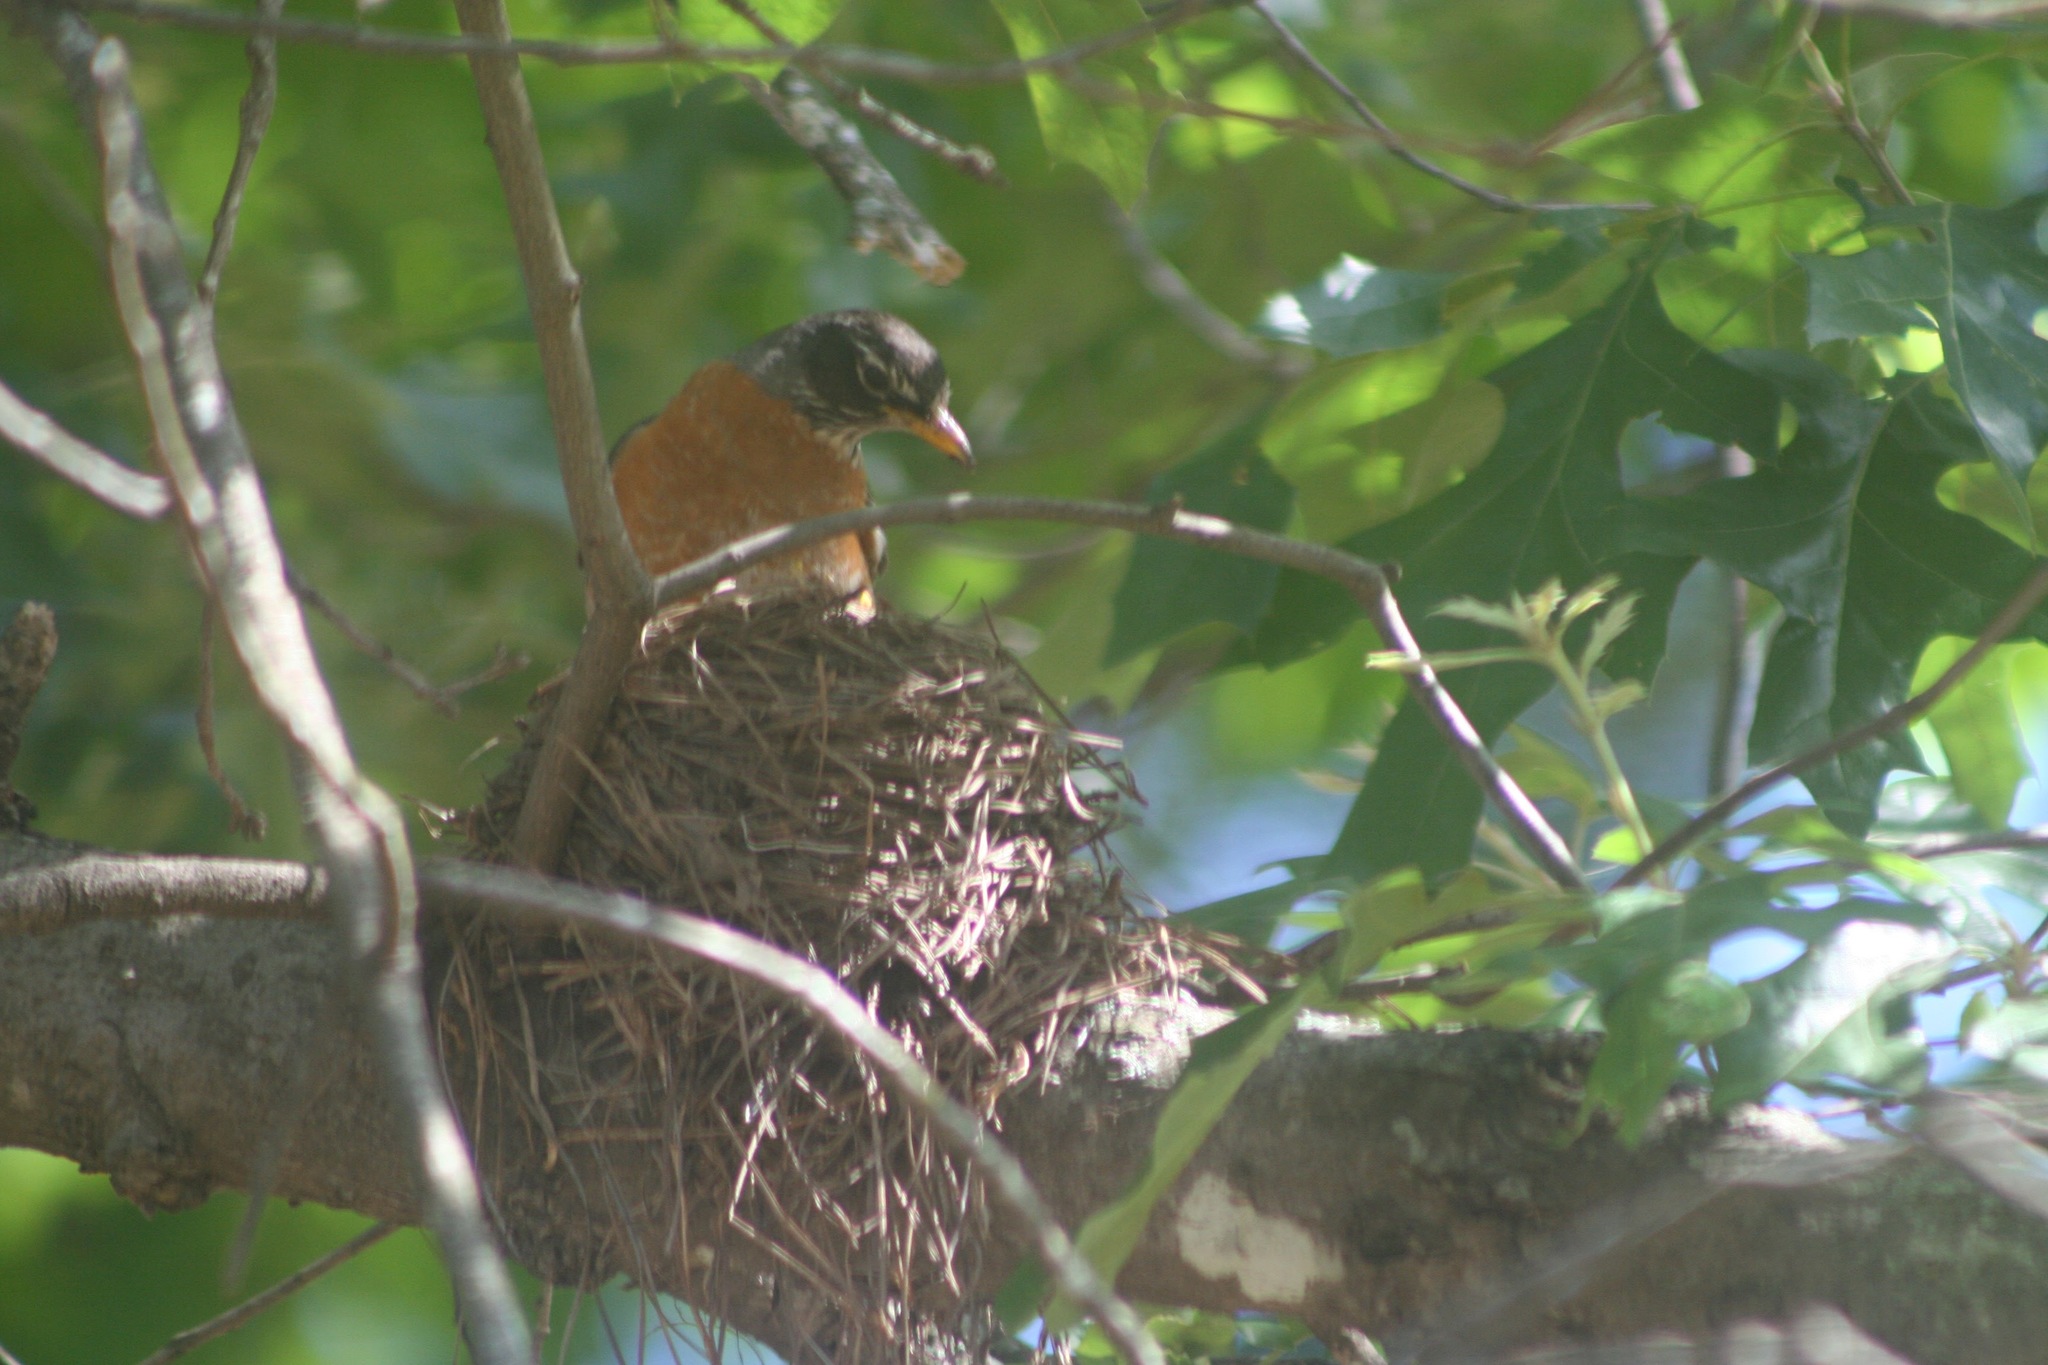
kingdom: Animalia
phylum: Chordata
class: Aves
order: Passeriformes
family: Turdidae
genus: Turdus
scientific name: Turdus migratorius
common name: American robin
